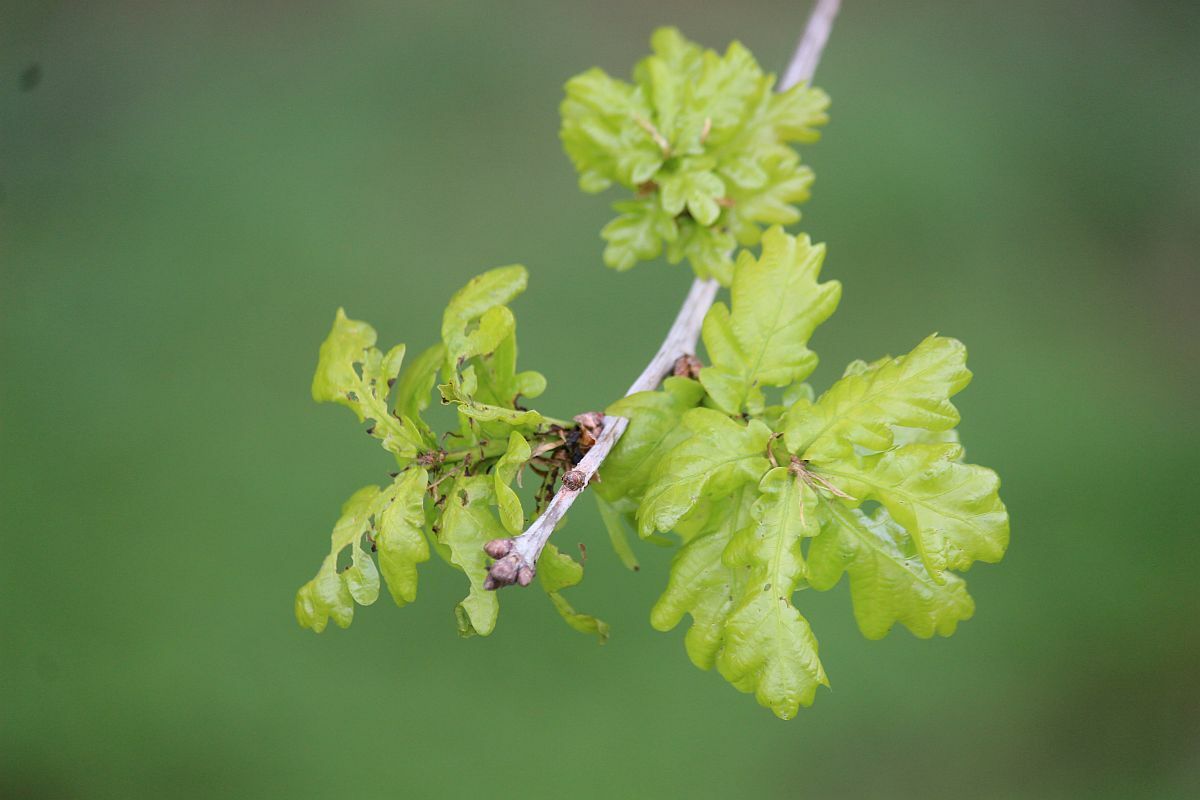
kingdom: Plantae
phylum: Tracheophyta
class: Magnoliopsida
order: Fagales
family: Fagaceae
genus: Quercus
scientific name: Quercus robur
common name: Pedunculate oak
